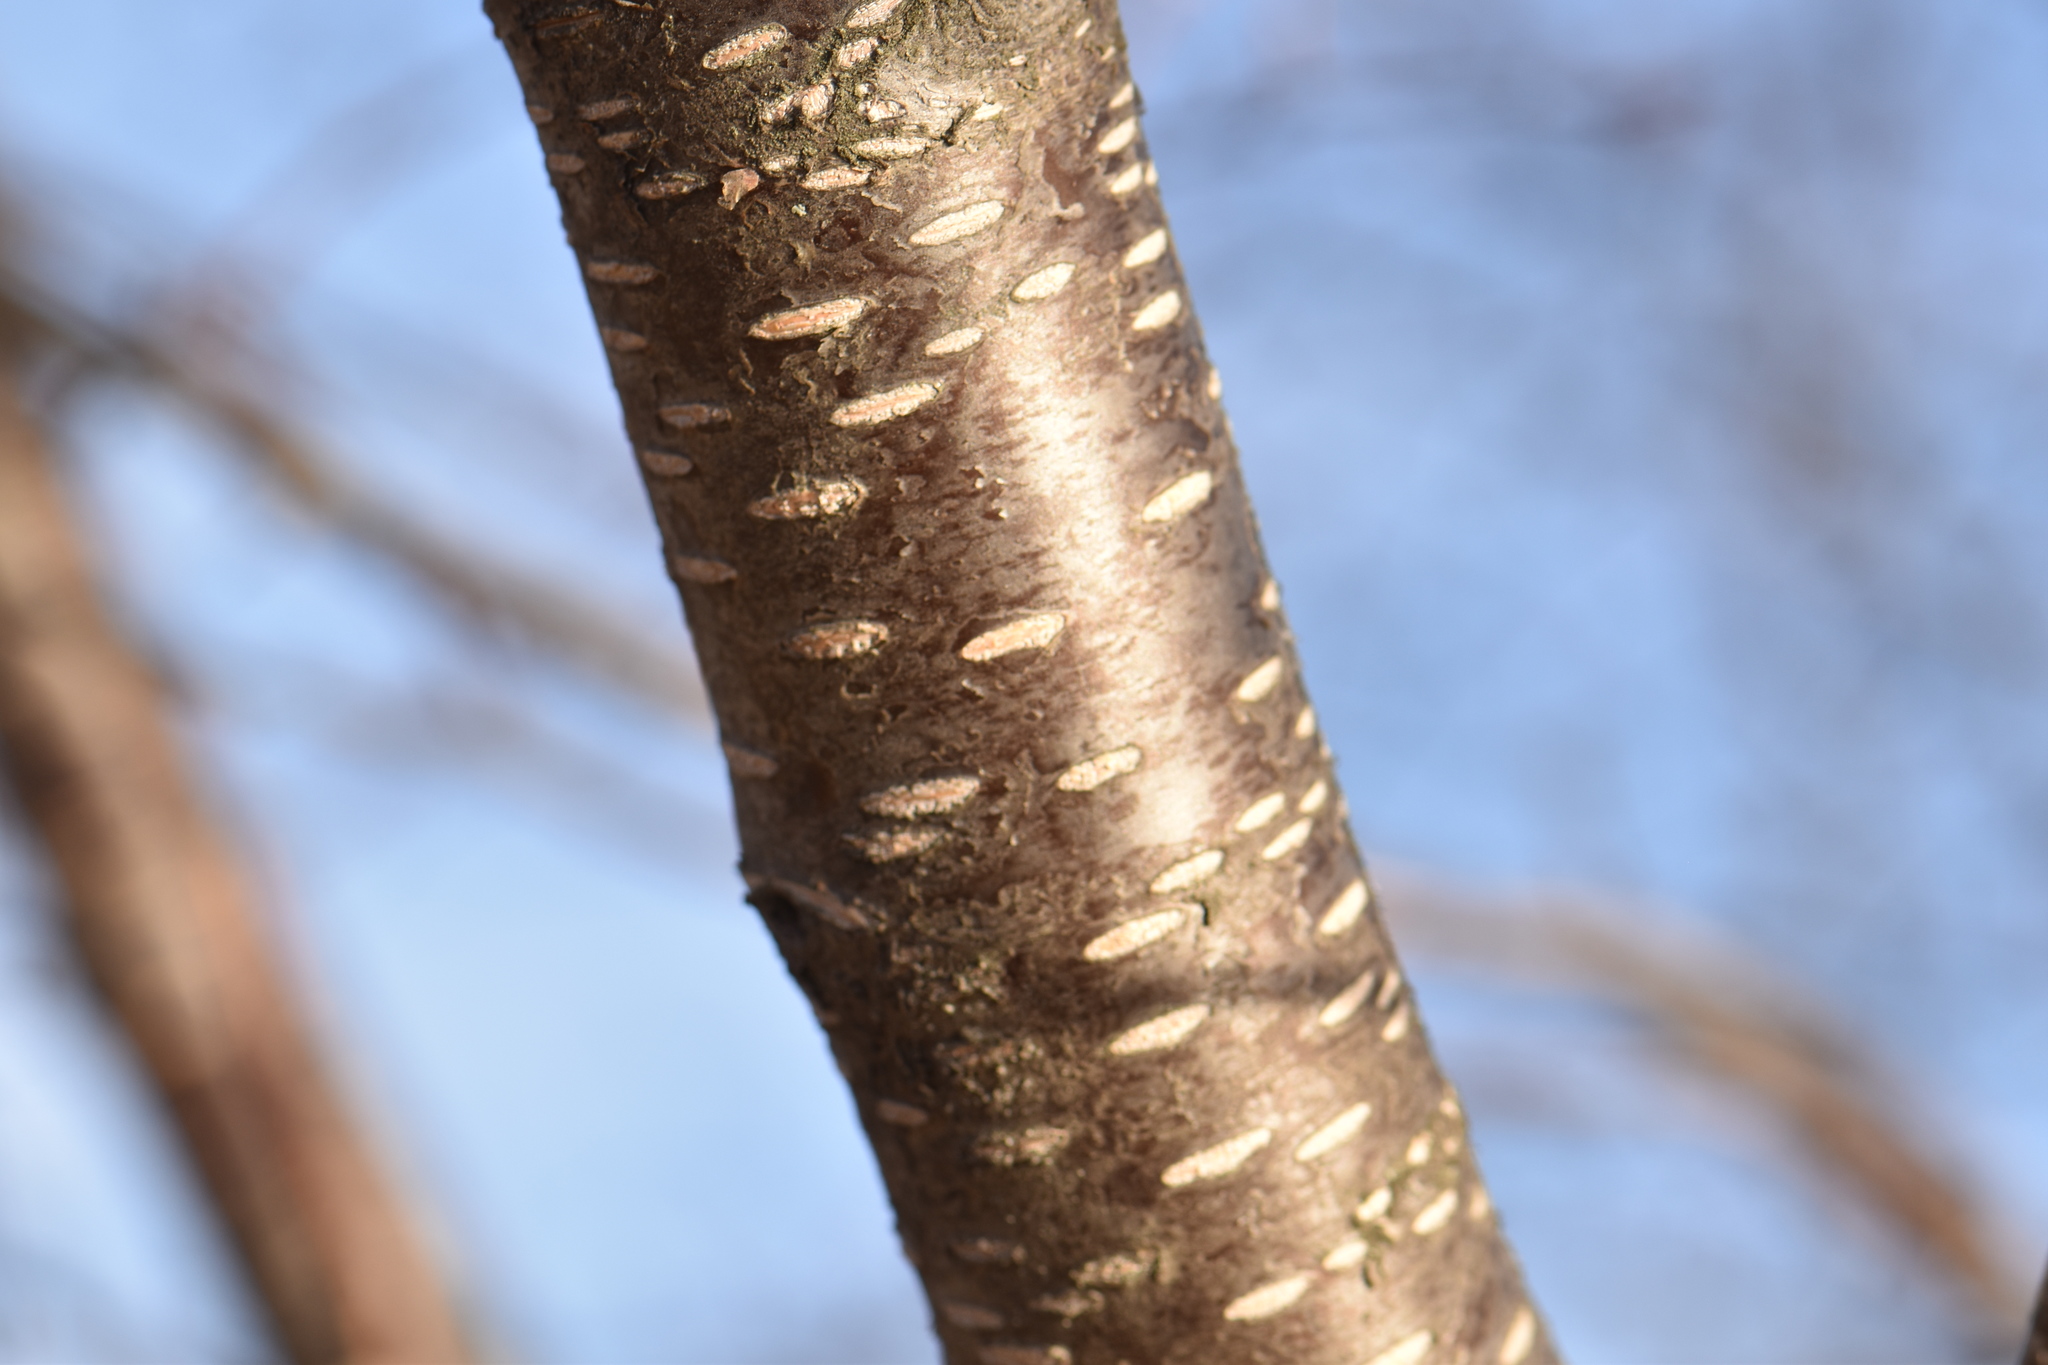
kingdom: Plantae
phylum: Tracheophyta
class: Magnoliopsida
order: Fagales
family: Betulaceae
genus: Alnus
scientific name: Alnus incana
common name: Grey alder
